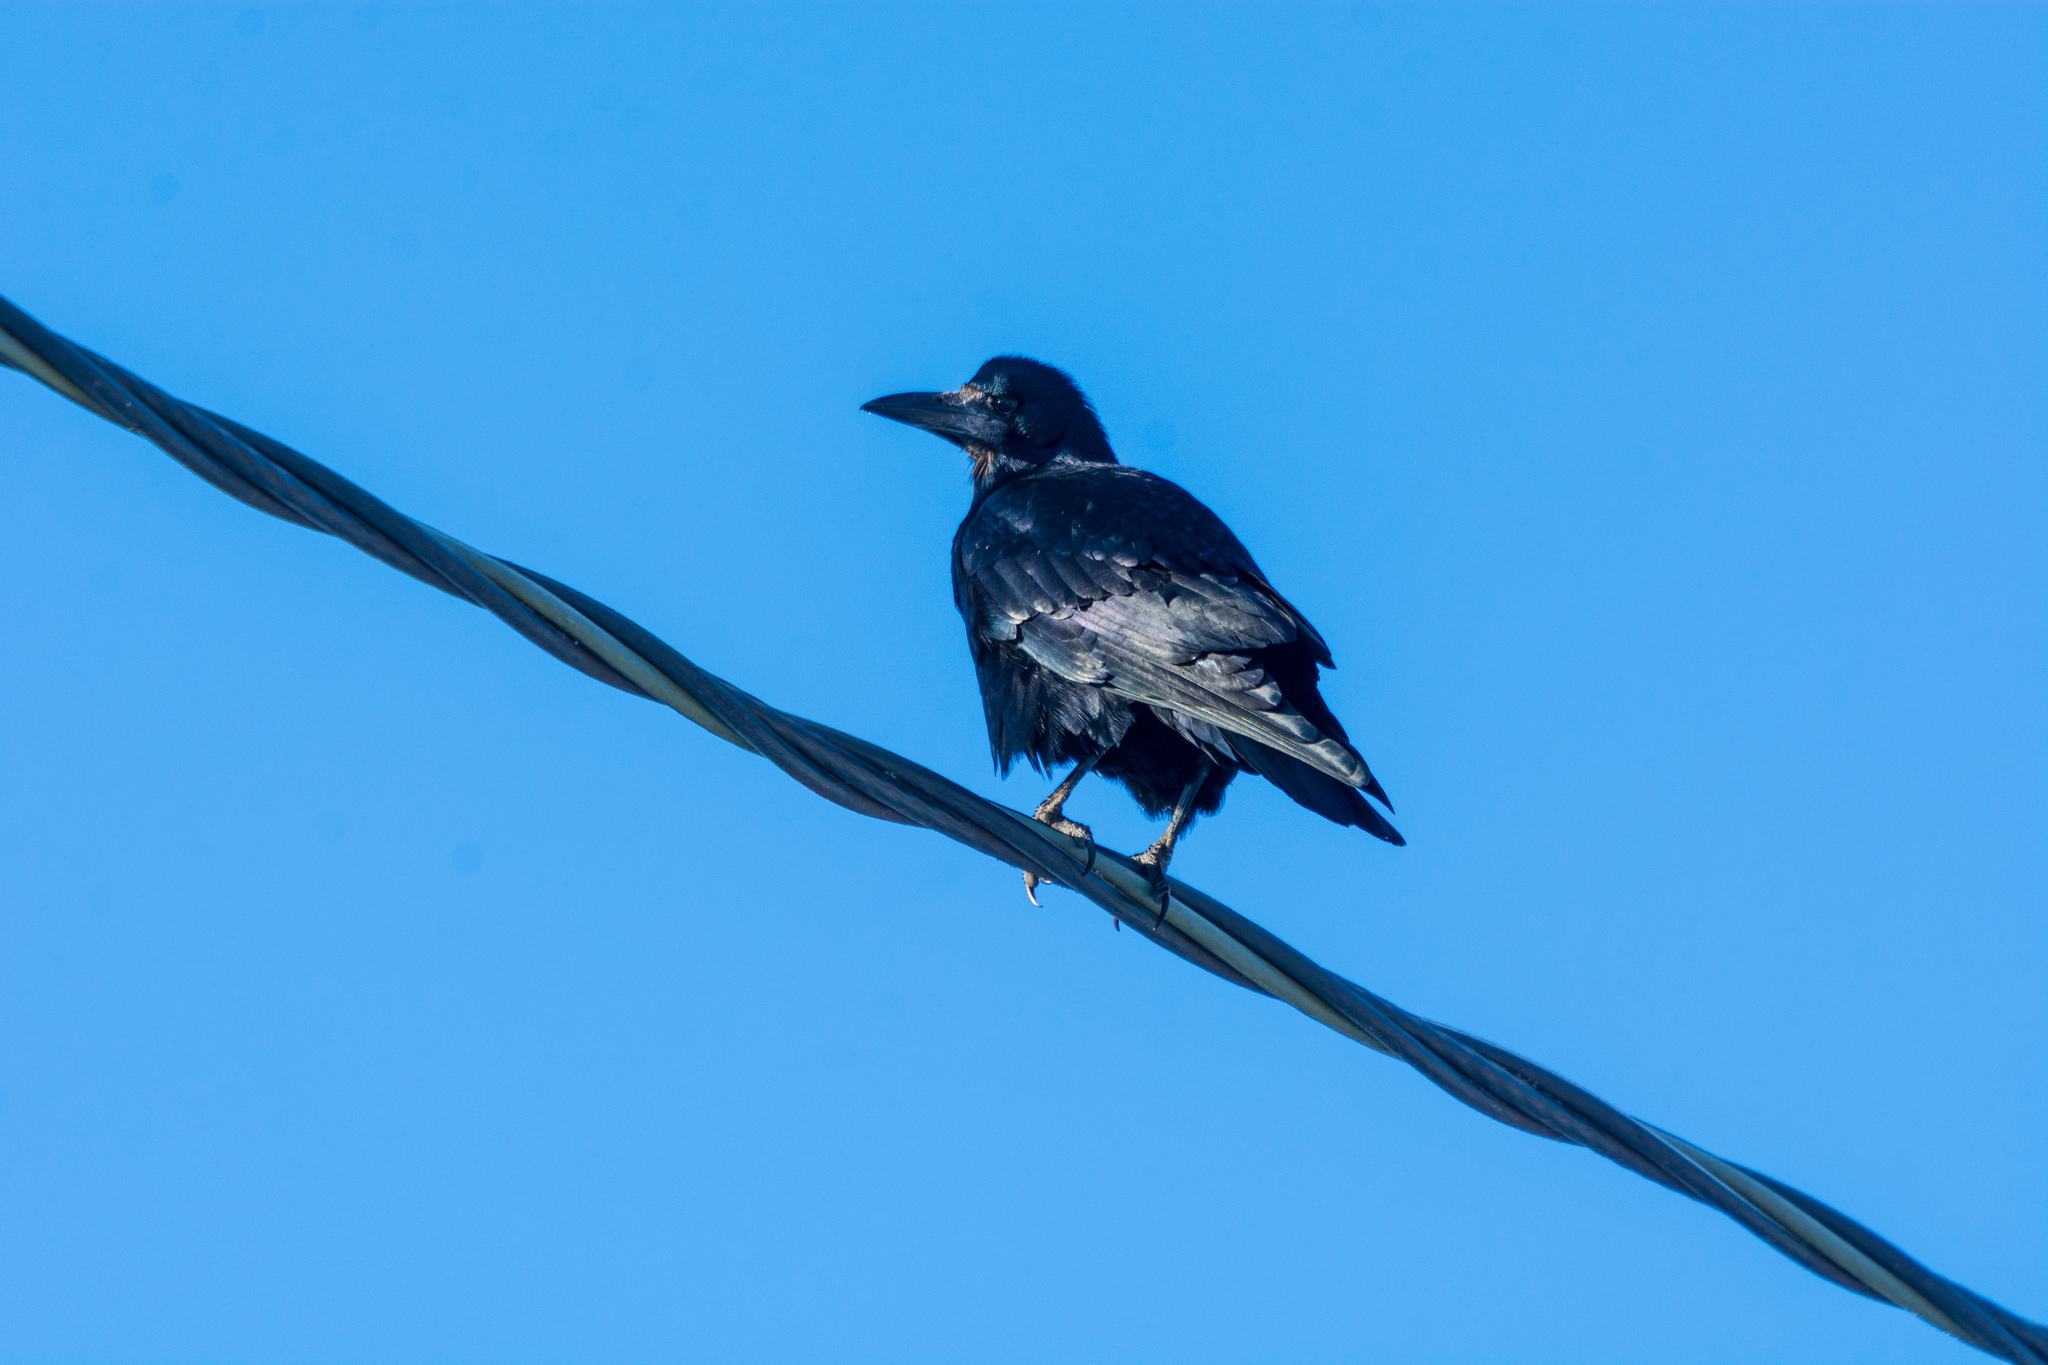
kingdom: Animalia
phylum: Chordata
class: Aves
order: Passeriformes
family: Corvidae
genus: Corvus
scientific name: Corvus frugilegus
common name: Rook
